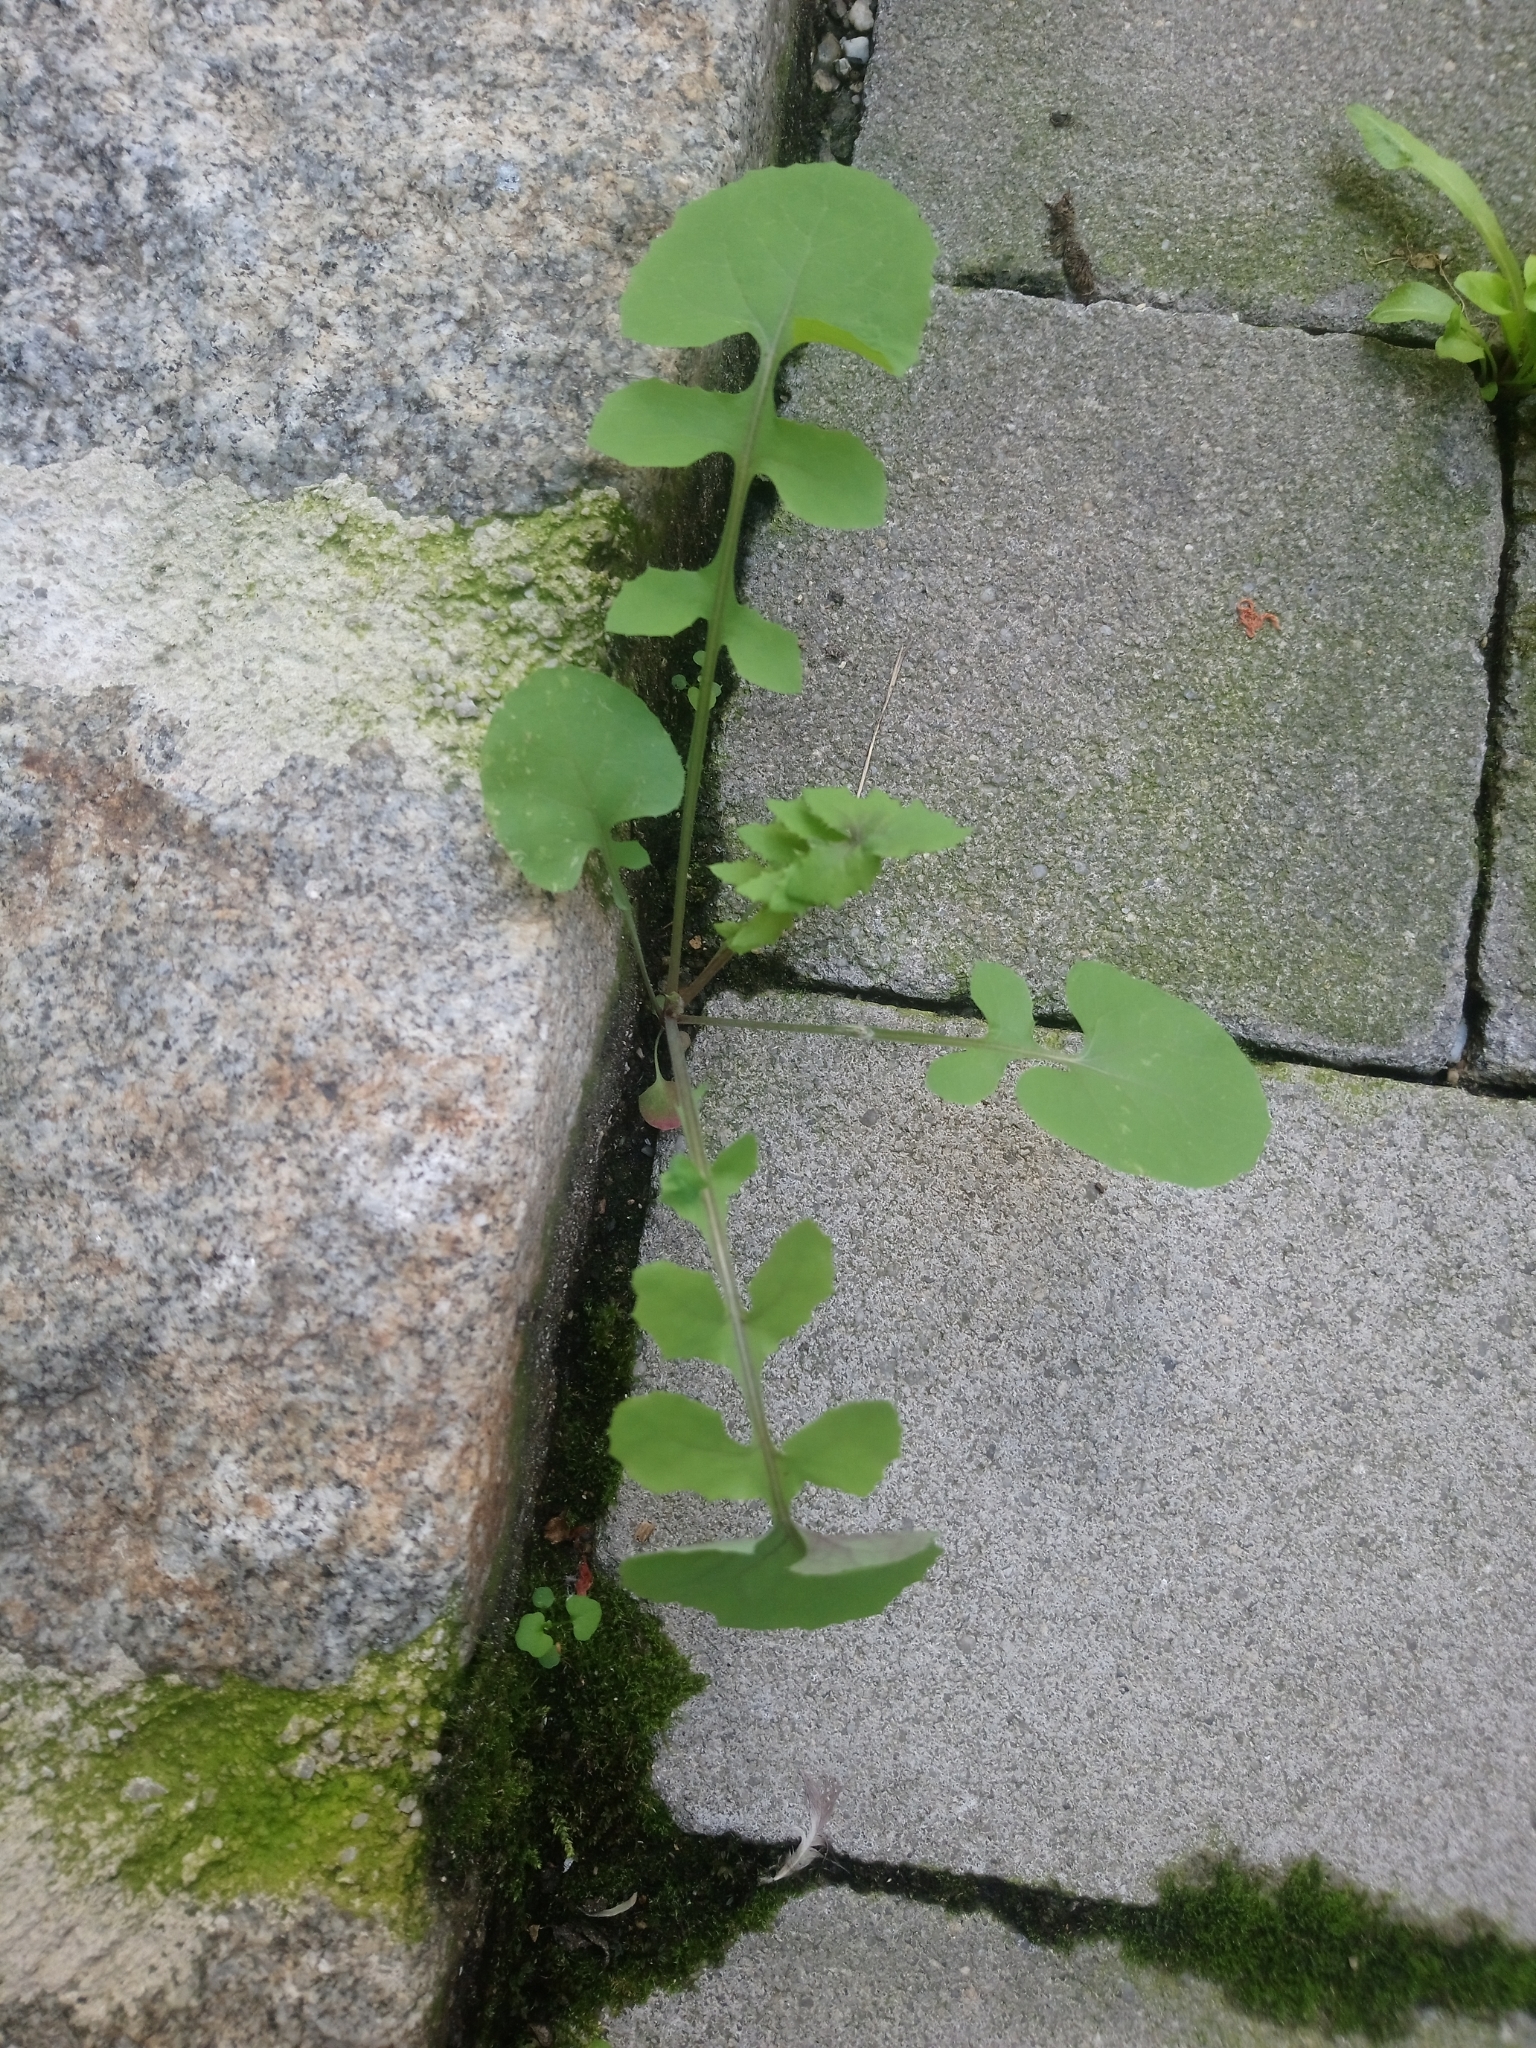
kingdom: Plantae
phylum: Tracheophyta
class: Magnoliopsida
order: Asterales
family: Asteraceae
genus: Sonchus
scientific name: Sonchus oleraceus
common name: Common sowthistle
